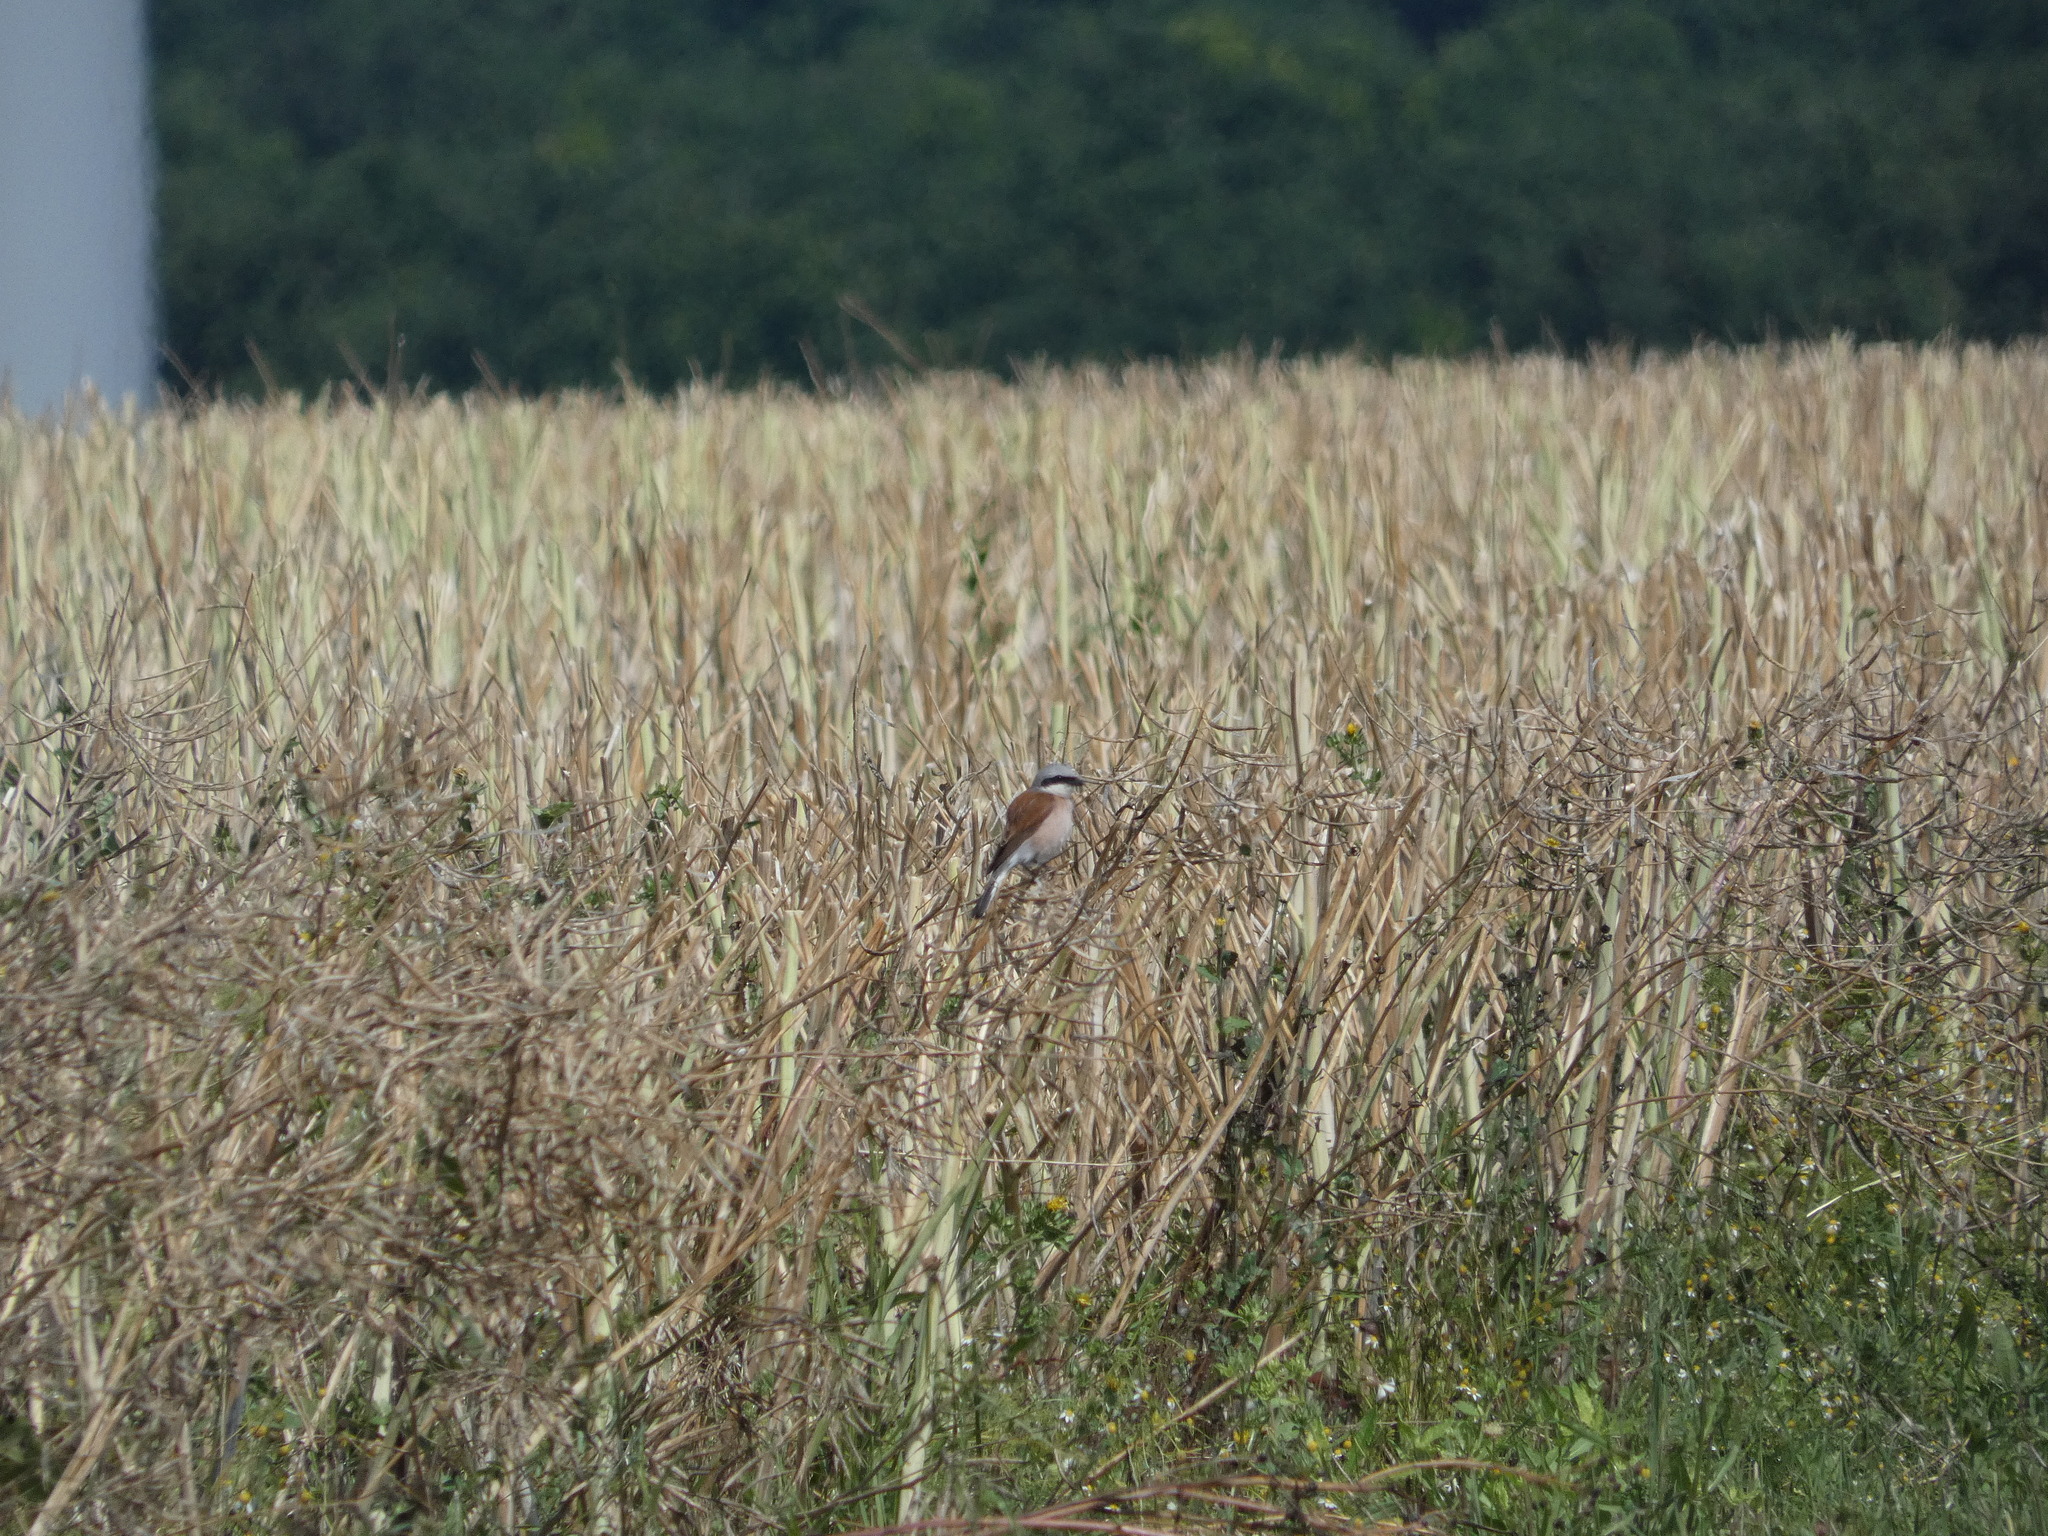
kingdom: Animalia
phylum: Chordata
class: Aves
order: Passeriformes
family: Laniidae
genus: Lanius
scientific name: Lanius collurio
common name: Red-backed shrike
